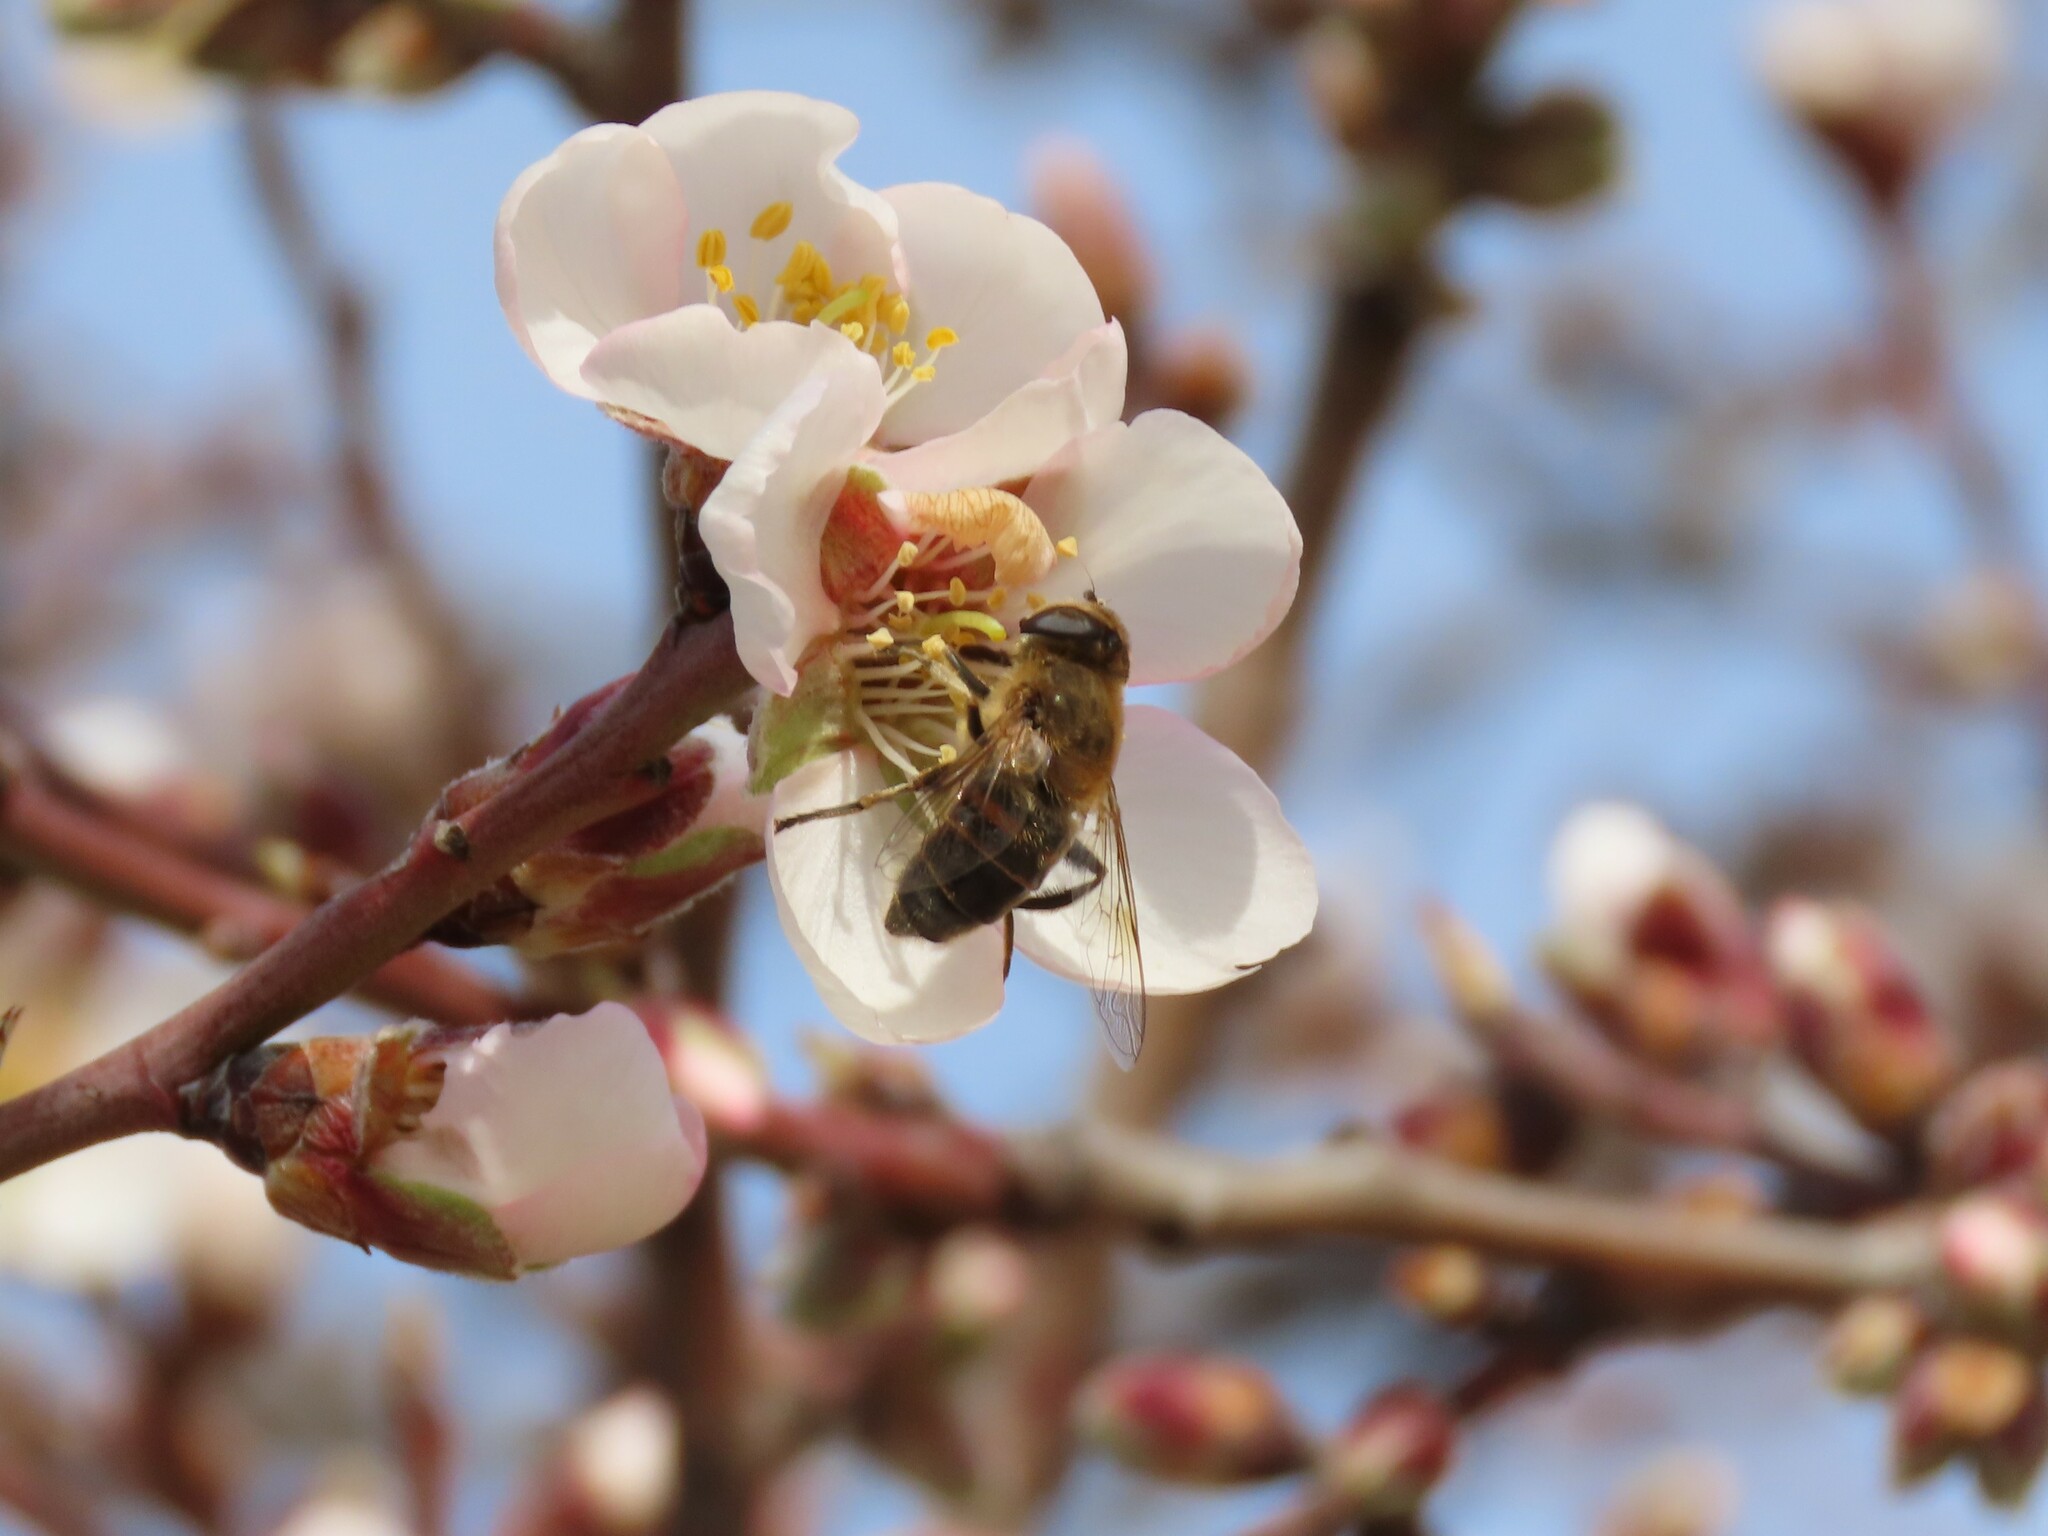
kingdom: Animalia
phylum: Arthropoda
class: Insecta
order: Diptera
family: Syrphidae
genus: Eristalis
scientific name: Eristalis tenax
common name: Drone fly
